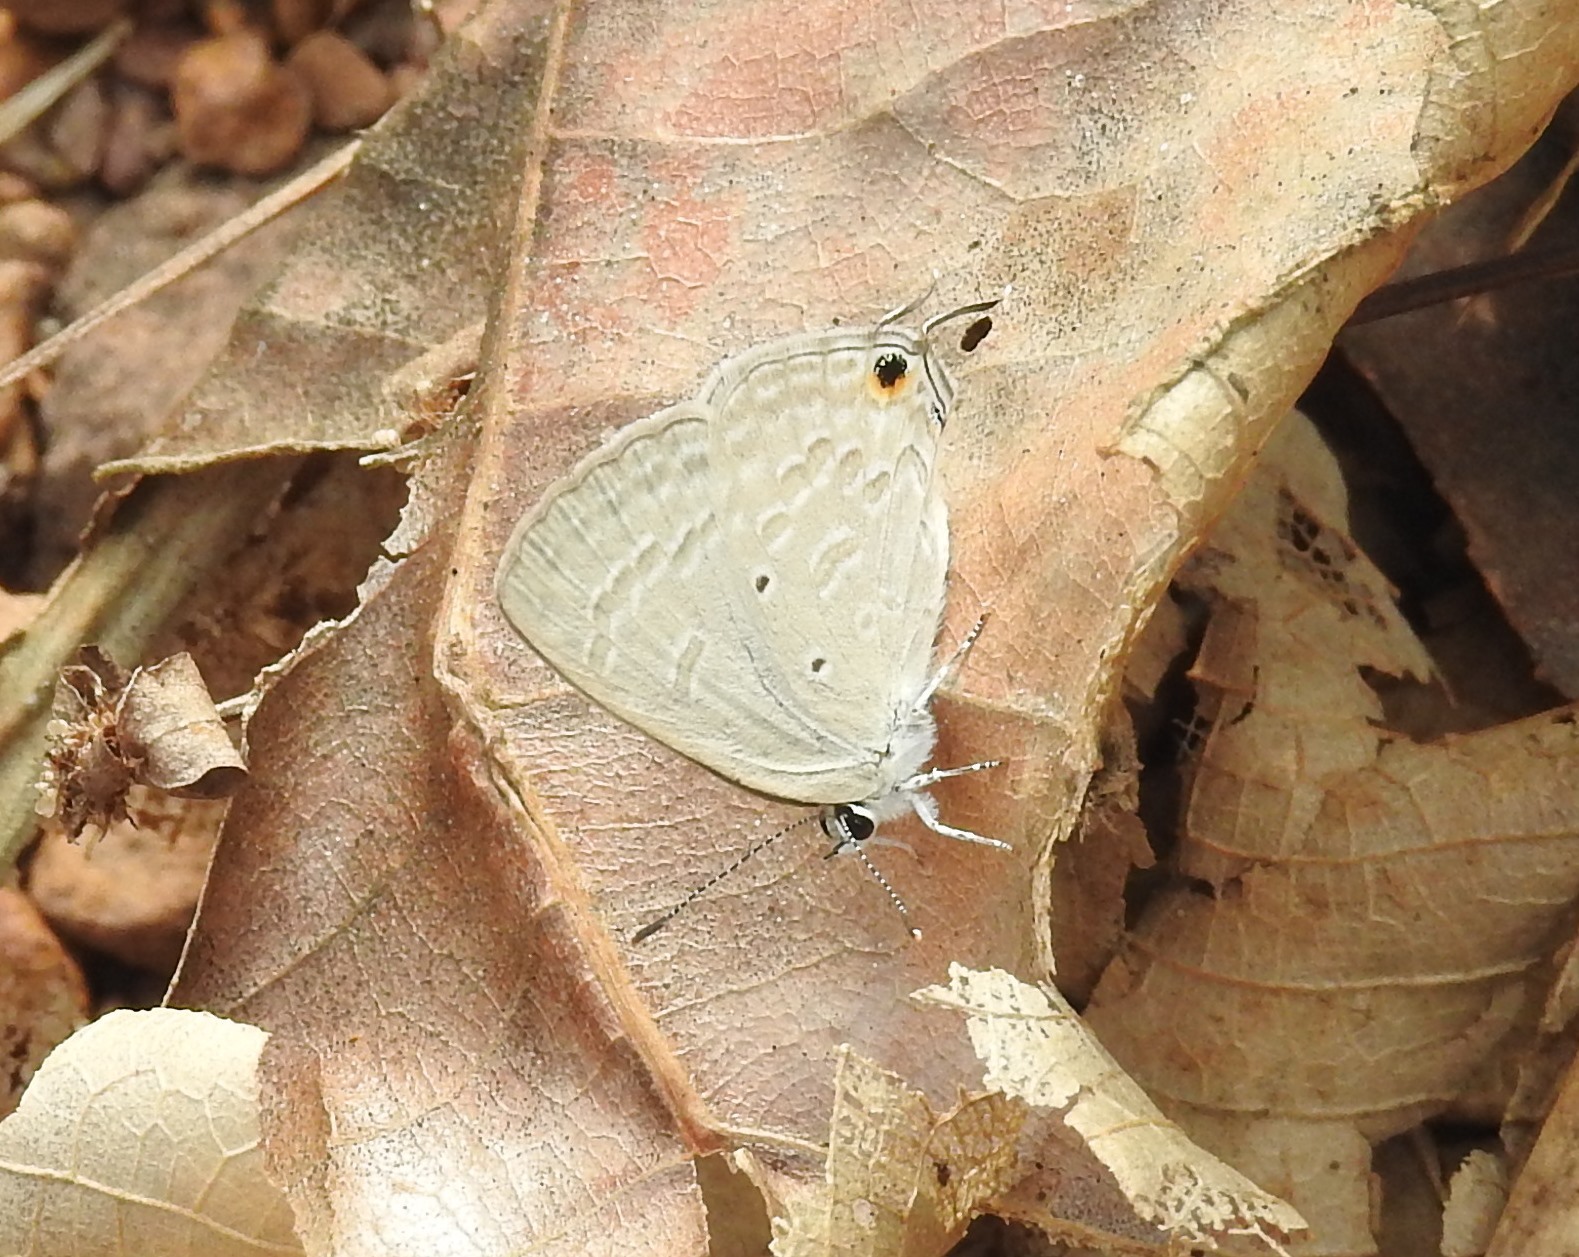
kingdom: Animalia
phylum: Arthropoda
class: Insecta
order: Lepidoptera
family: Lycaenidae
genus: Catochrysops
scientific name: Catochrysops strabo
